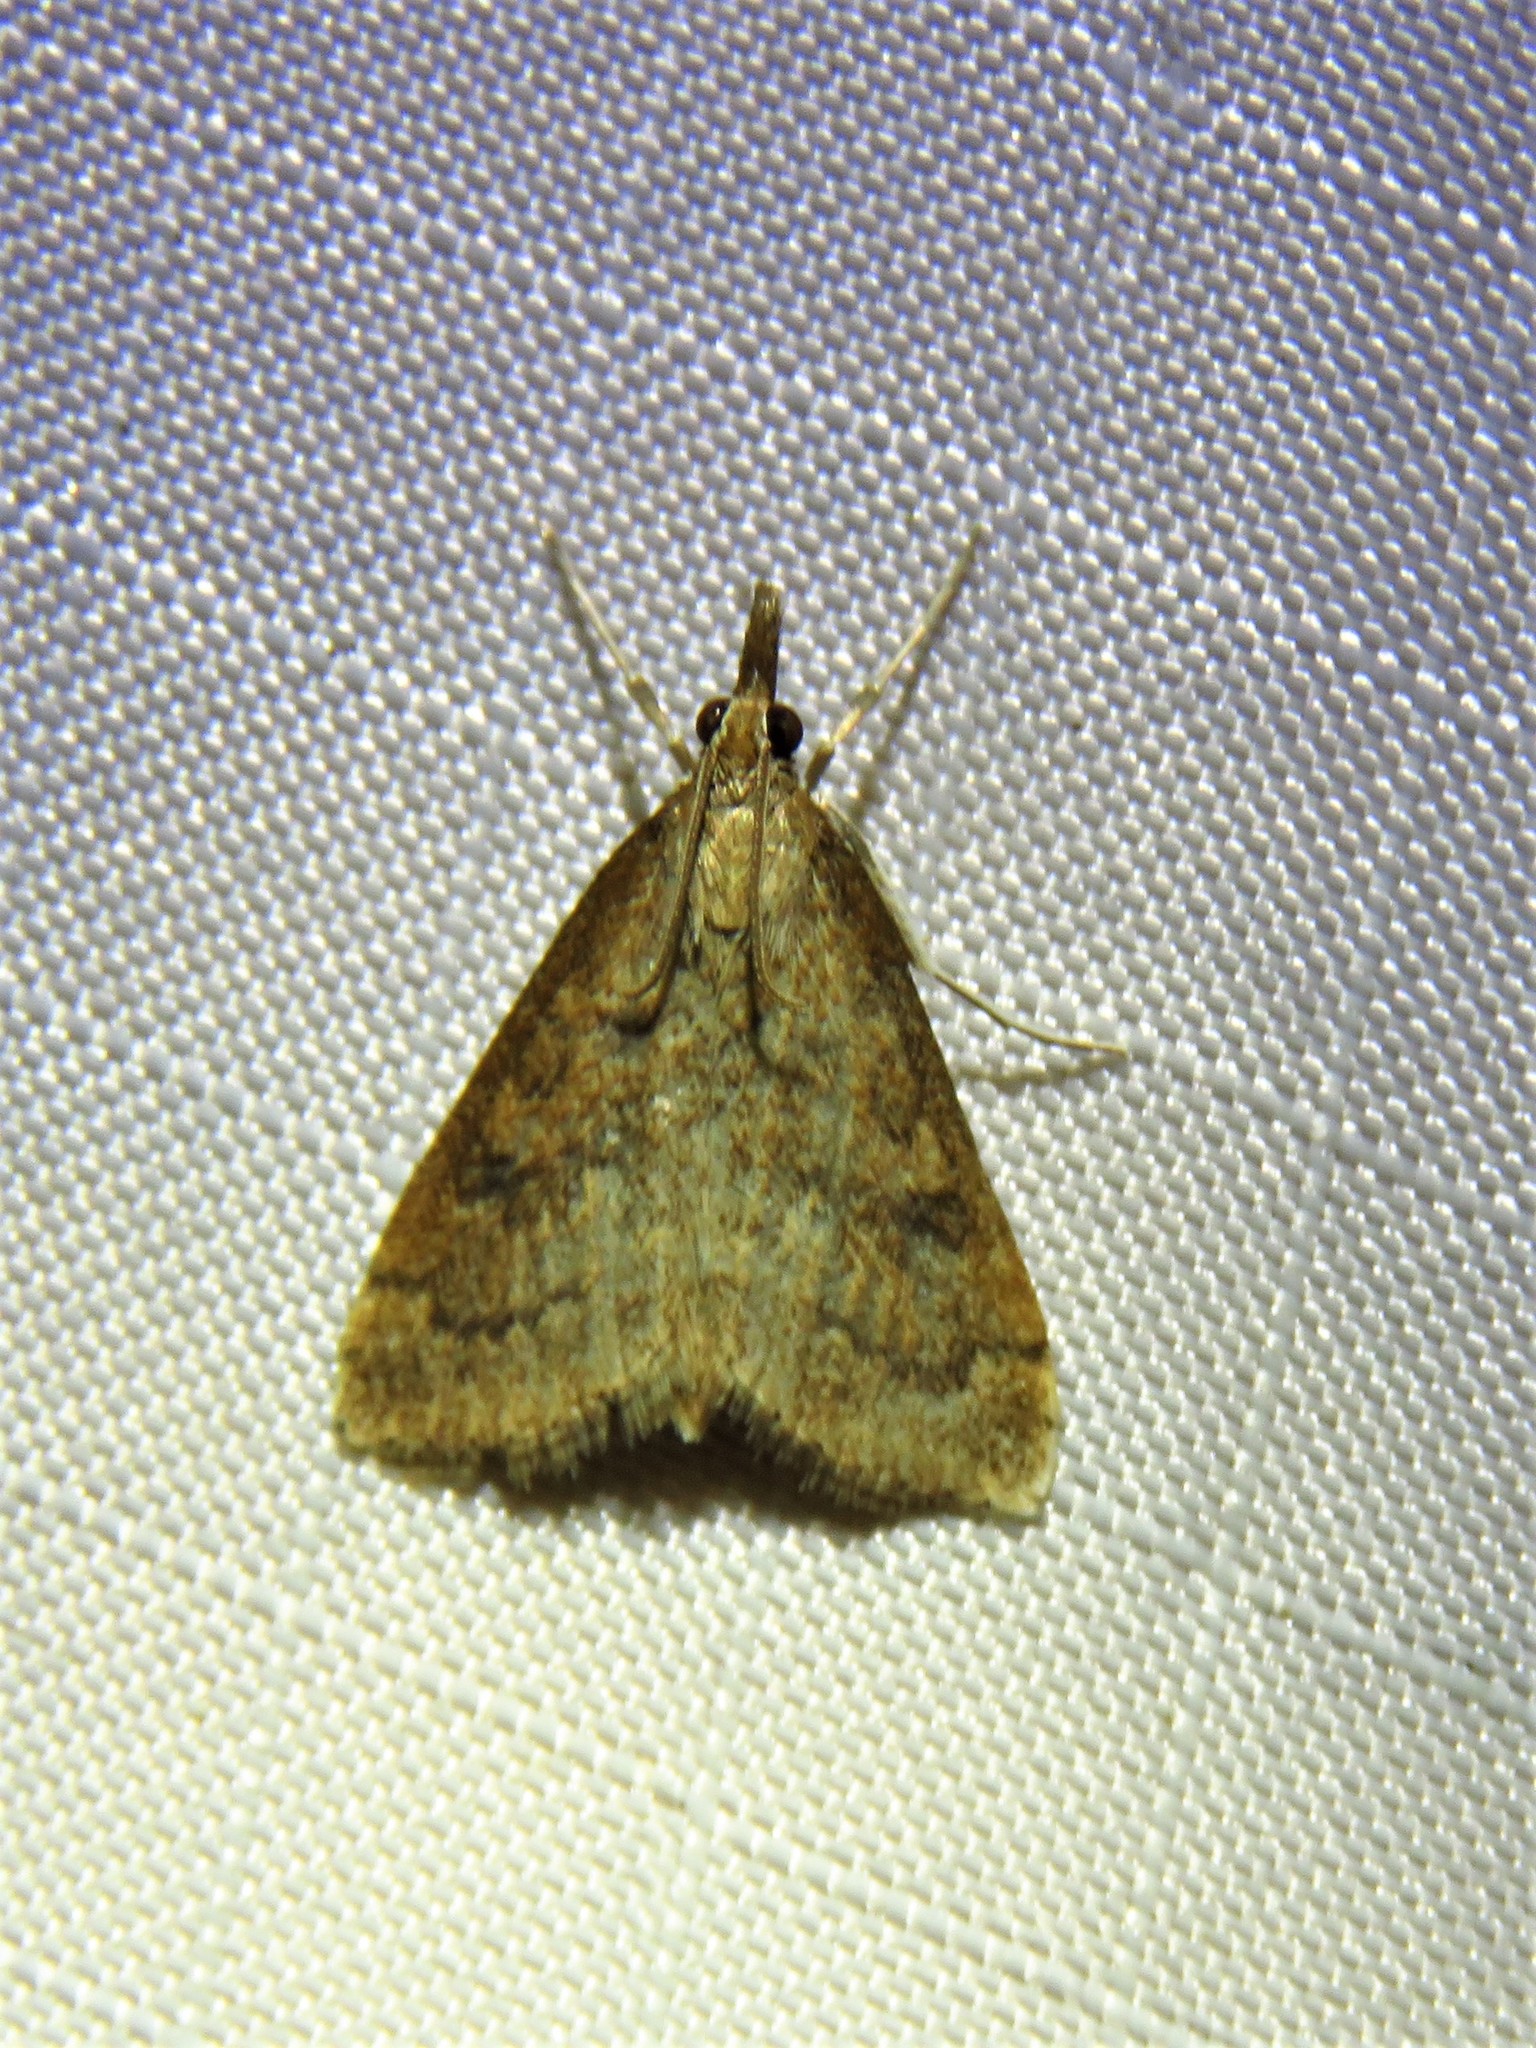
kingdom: Animalia
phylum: Arthropoda
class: Insecta
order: Lepidoptera
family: Crambidae
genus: Udea
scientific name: Udea rubigalis
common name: Celery leaftier moth
